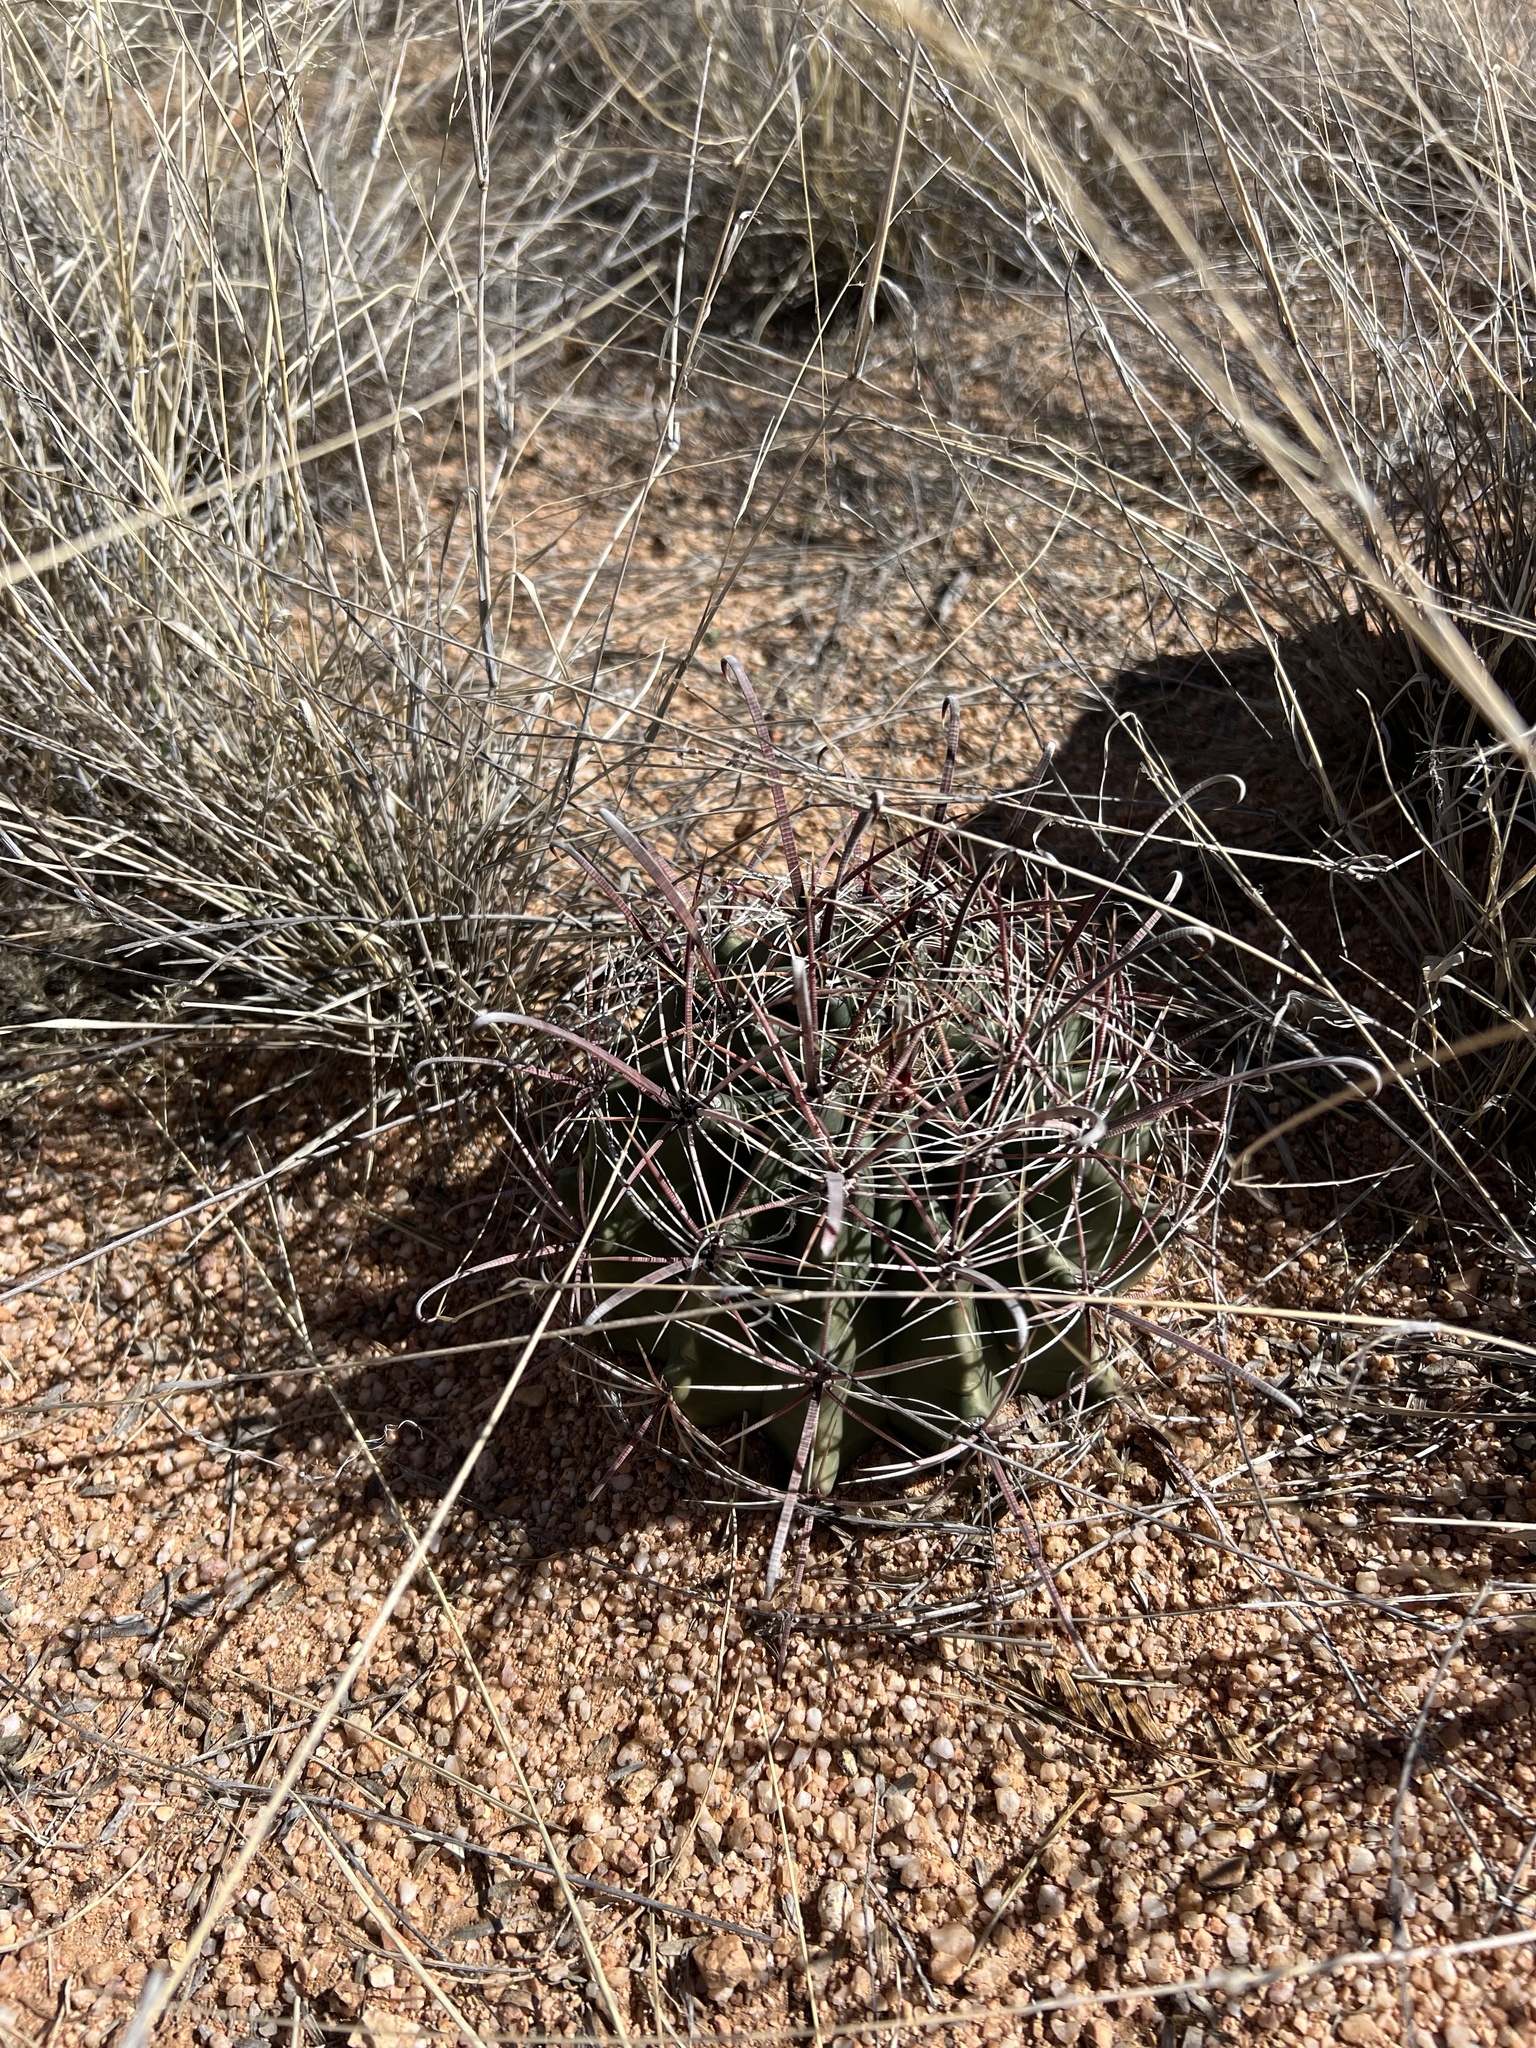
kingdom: Plantae
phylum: Tracheophyta
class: Magnoliopsida
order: Caryophyllales
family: Cactaceae
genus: Ferocactus
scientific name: Ferocactus wislizeni
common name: Candy barrel cactus
